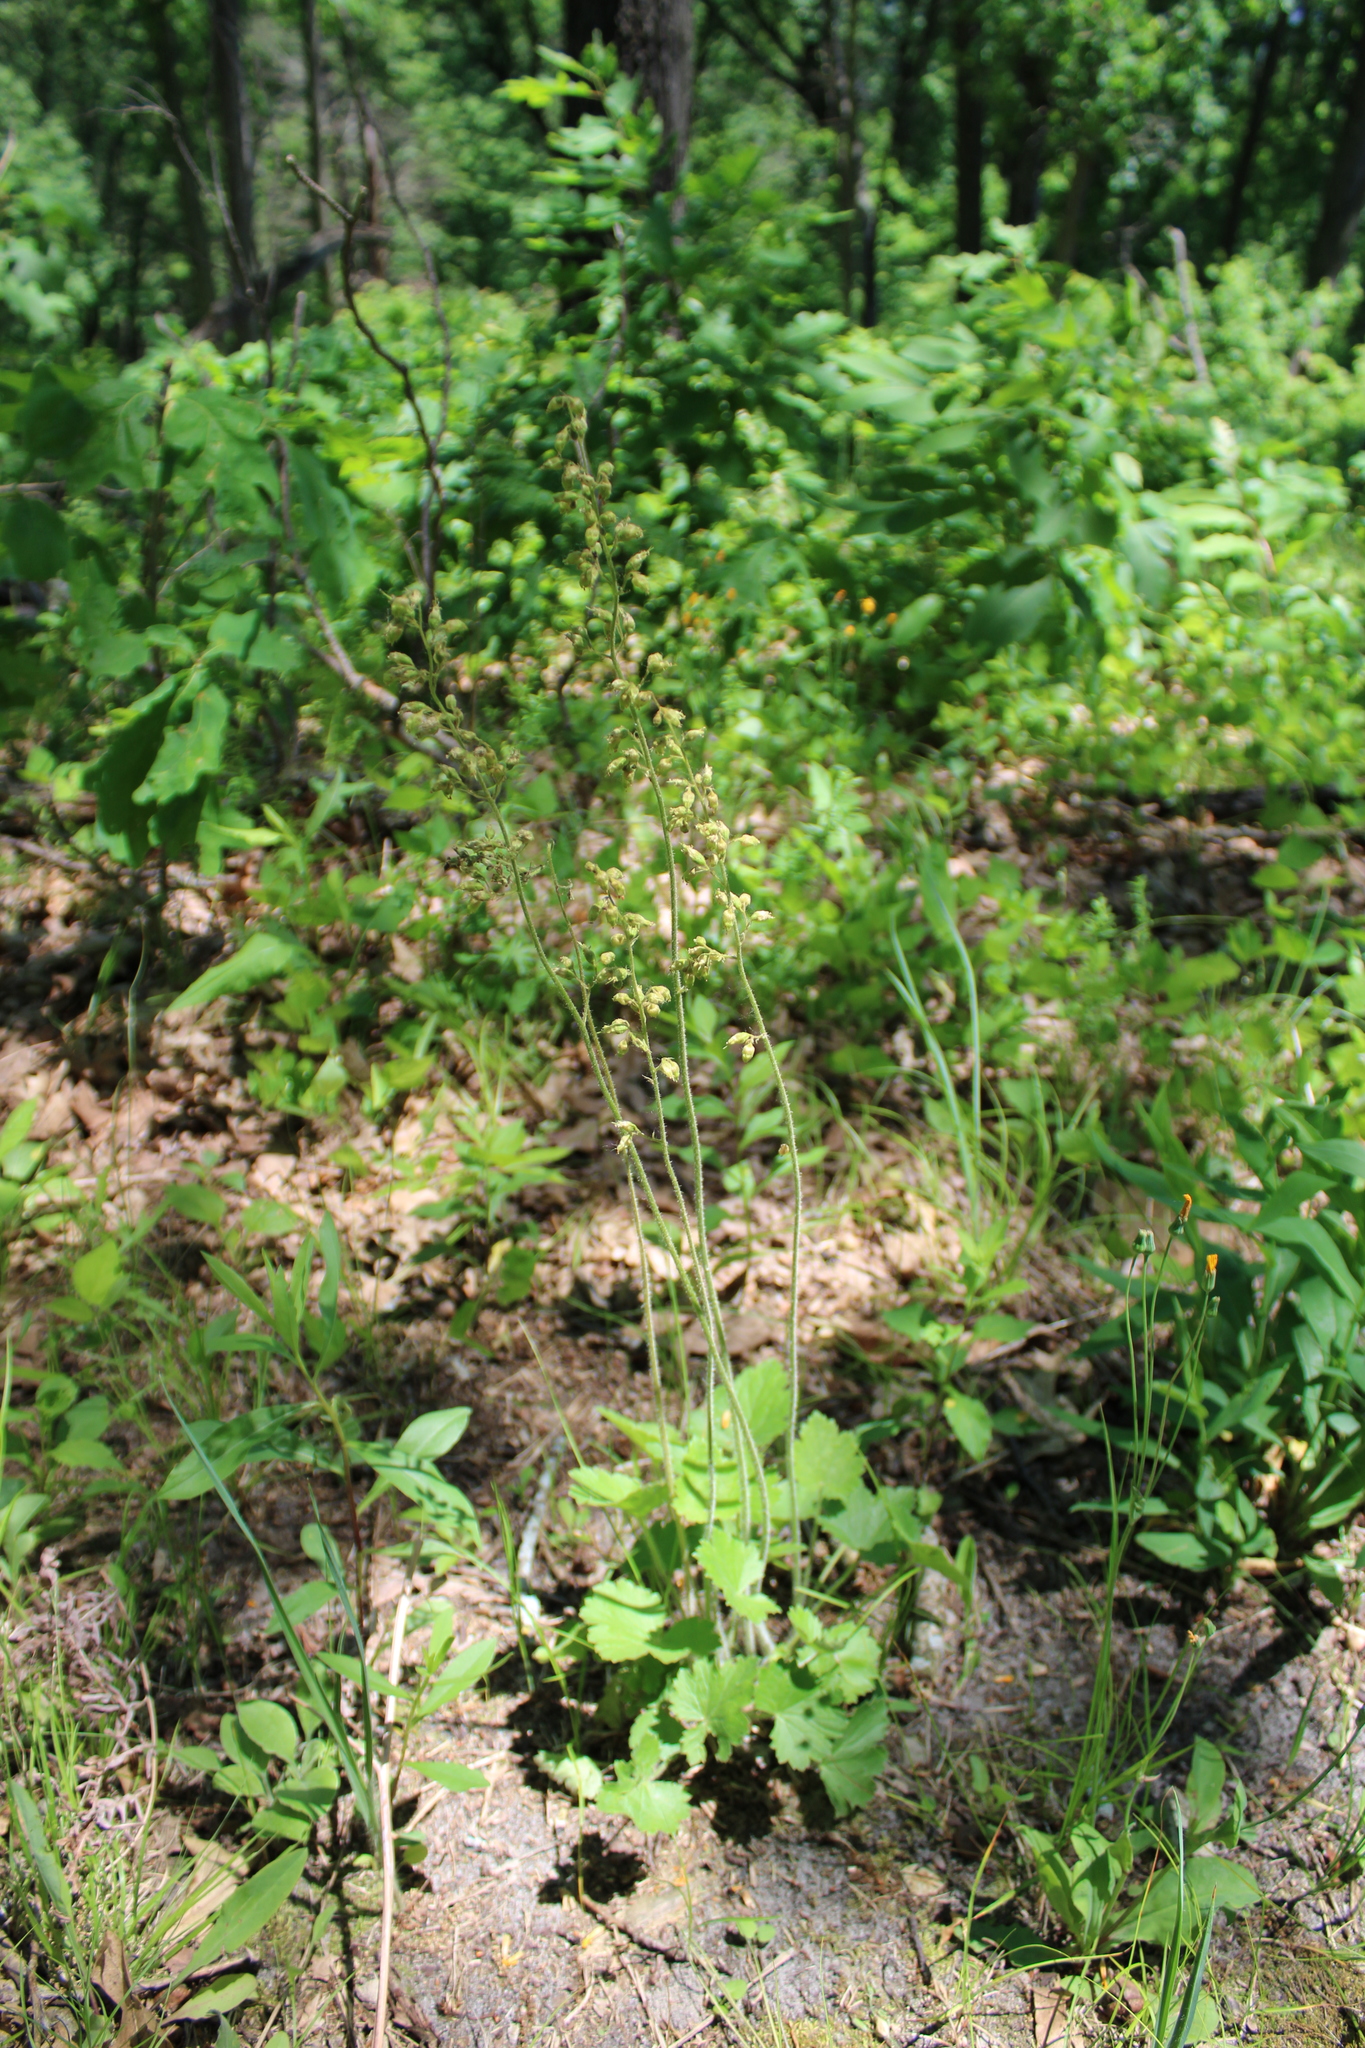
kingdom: Plantae
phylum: Tracheophyta
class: Magnoliopsida
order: Saxifragales
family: Saxifragaceae
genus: Heuchera
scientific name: Heuchera richardsonii
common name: Richardson's alumroot
